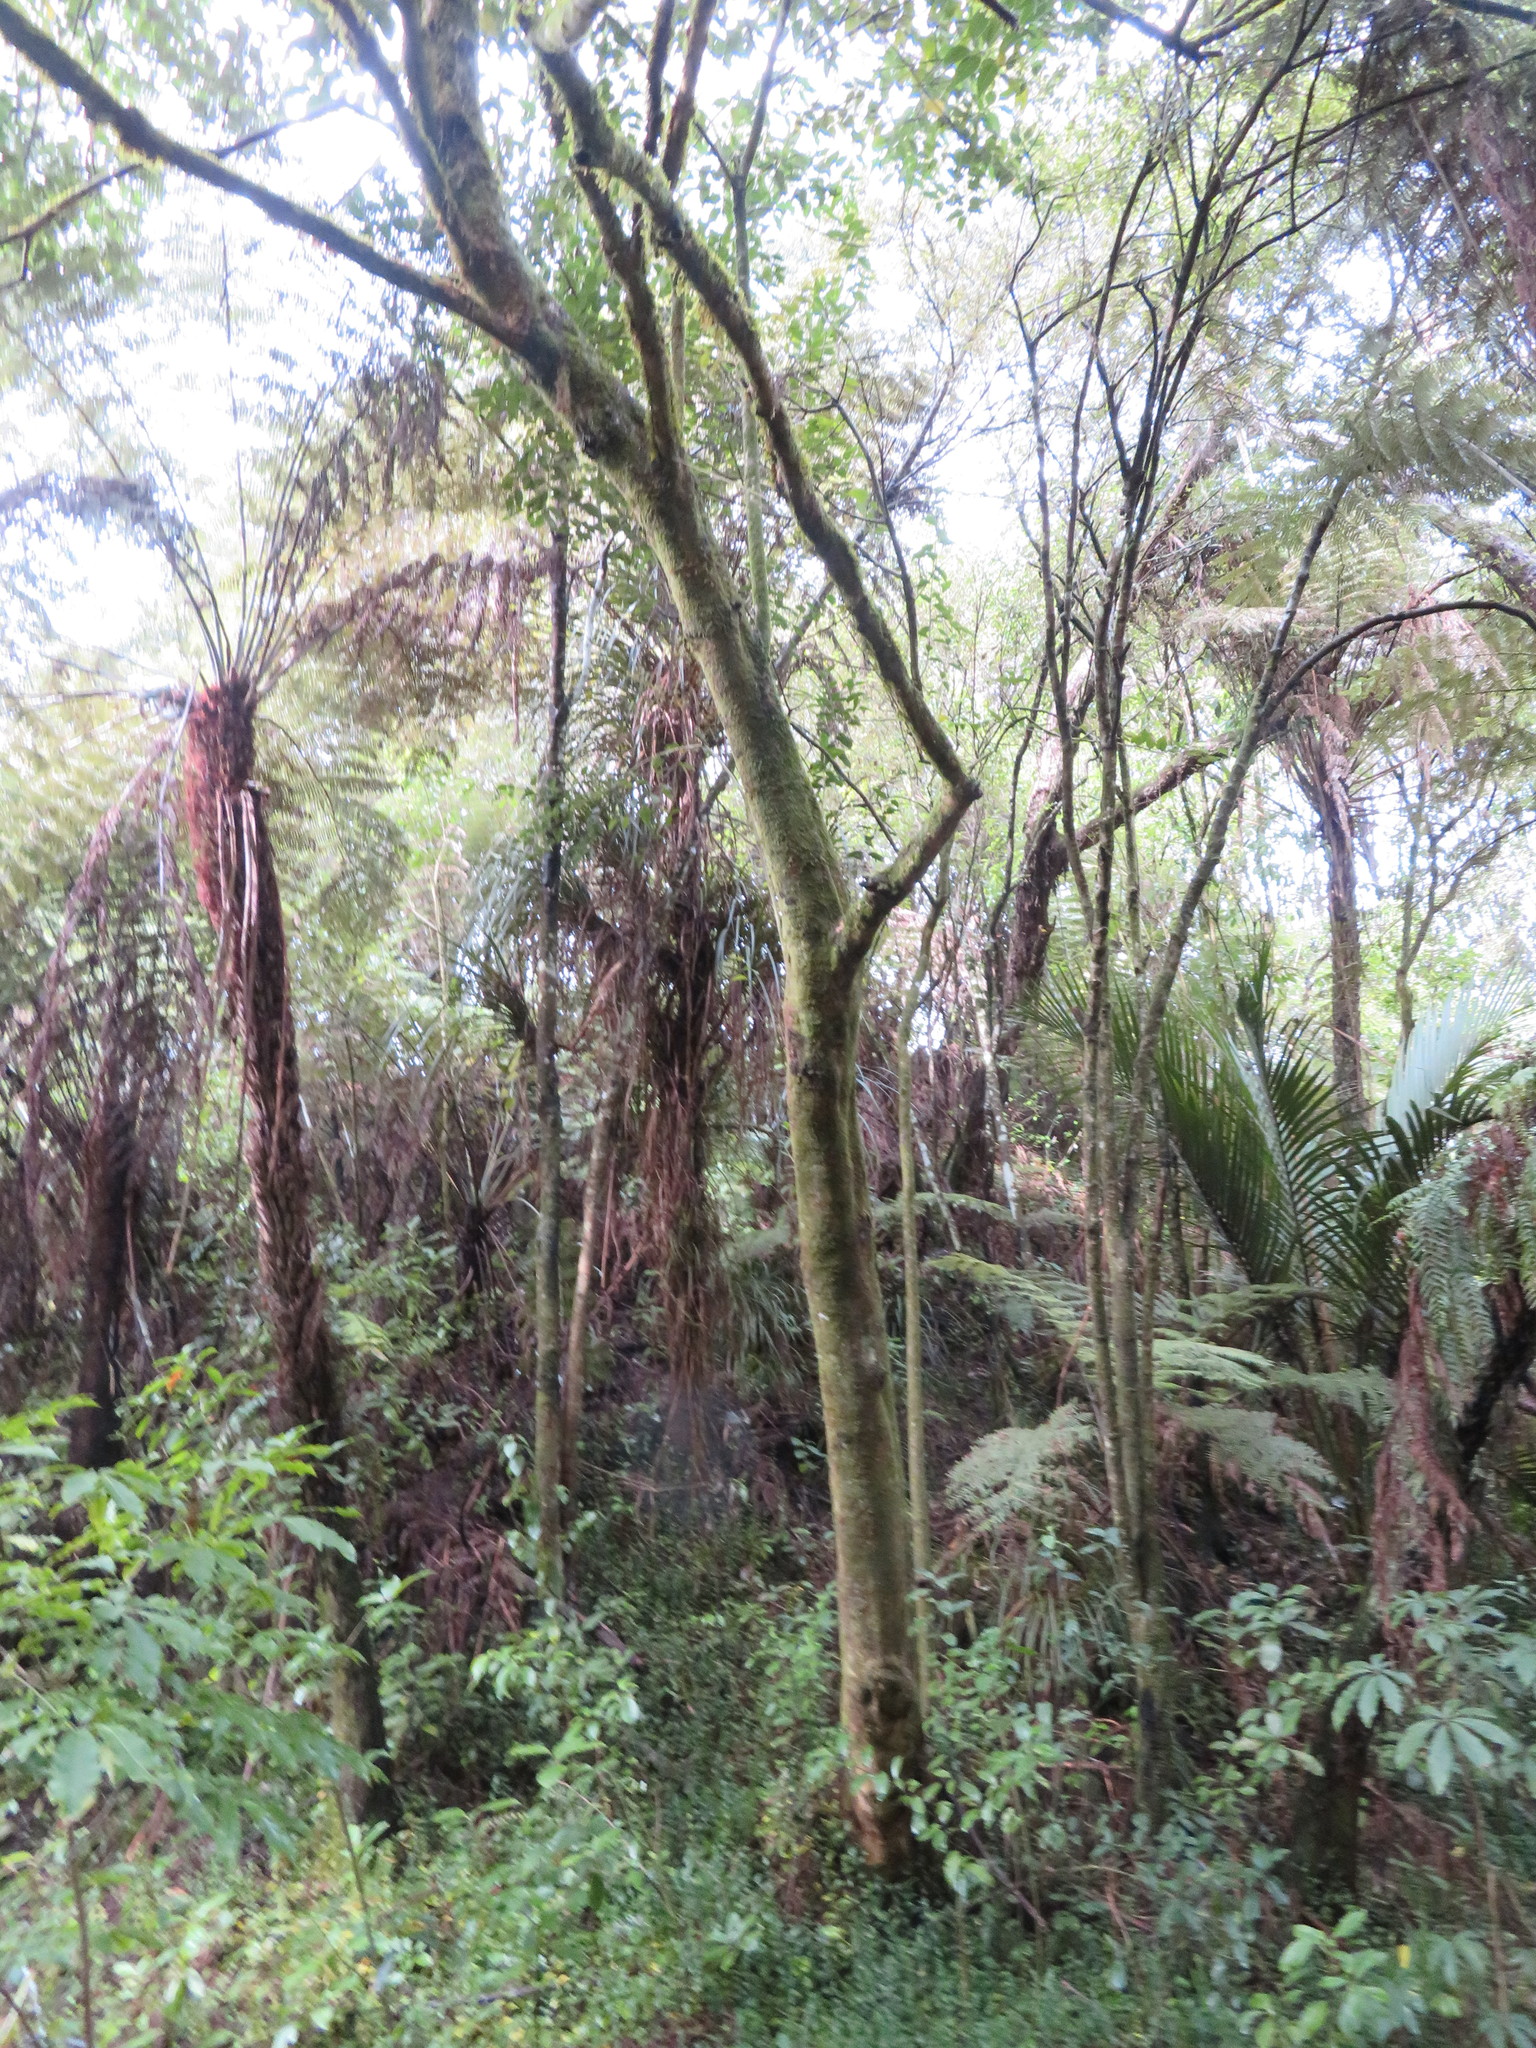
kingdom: Plantae
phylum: Tracheophyta
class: Magnoliopsida
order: Lamiales
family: Oleaceae
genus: Ligustrum
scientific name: Ligustrum lucidum
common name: Glossy privet
